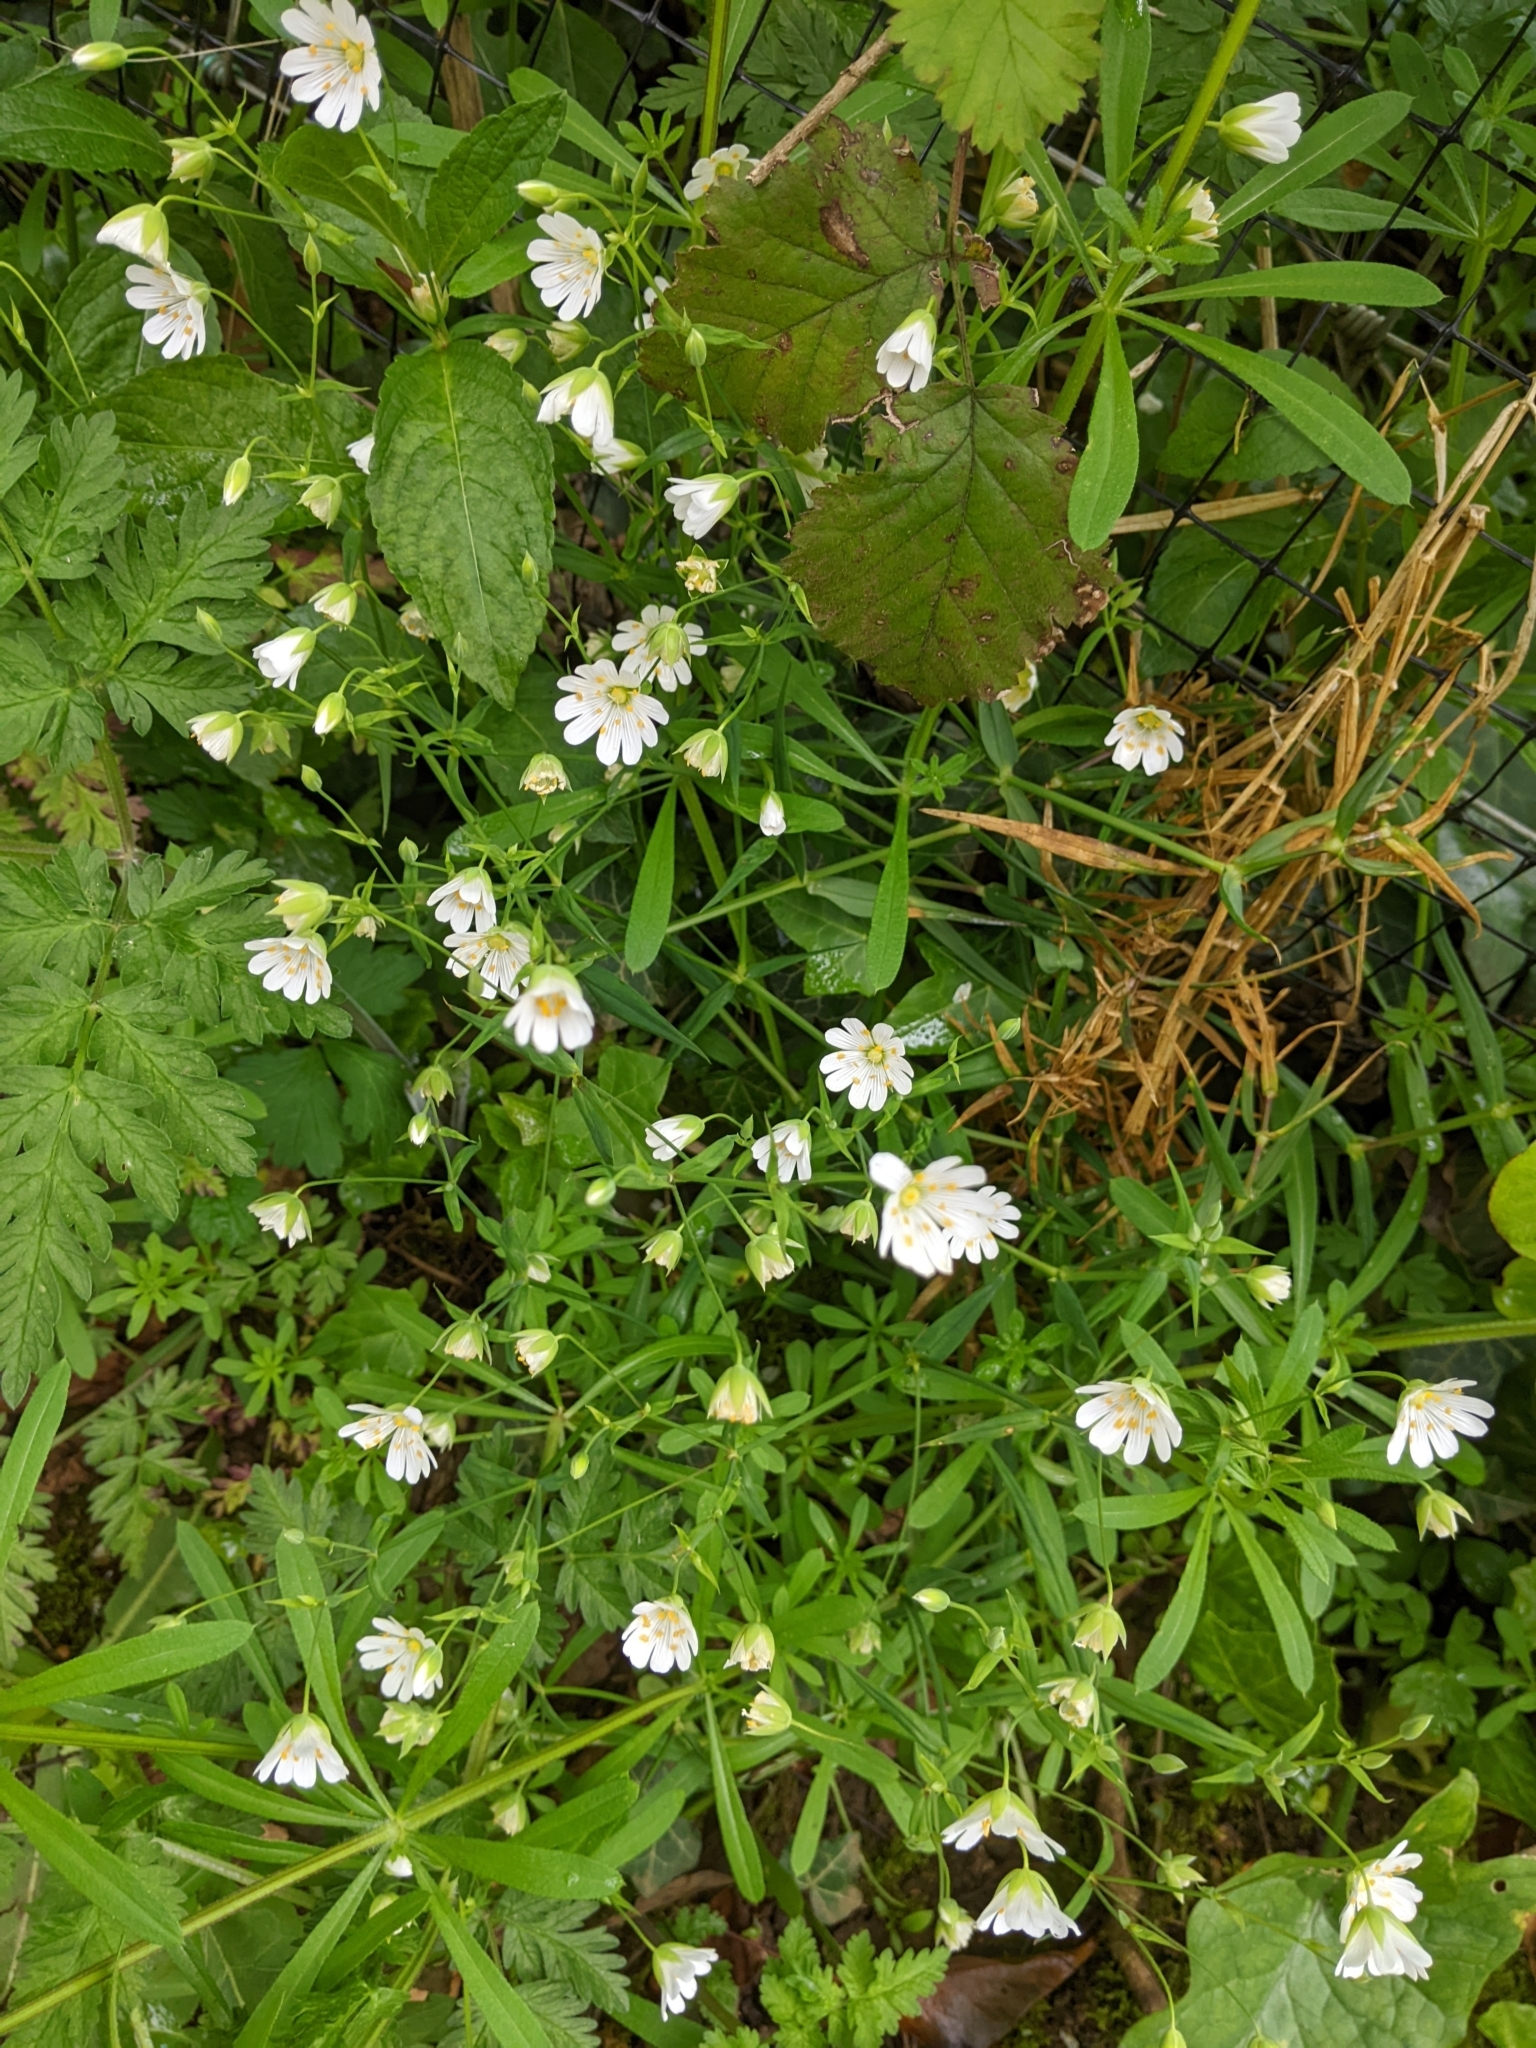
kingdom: Plantae
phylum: Tracheophyta
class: Magnoliopsida
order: Caryophyllales
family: Caryophyllaceae
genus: Rabelera
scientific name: Rabelera holostea
